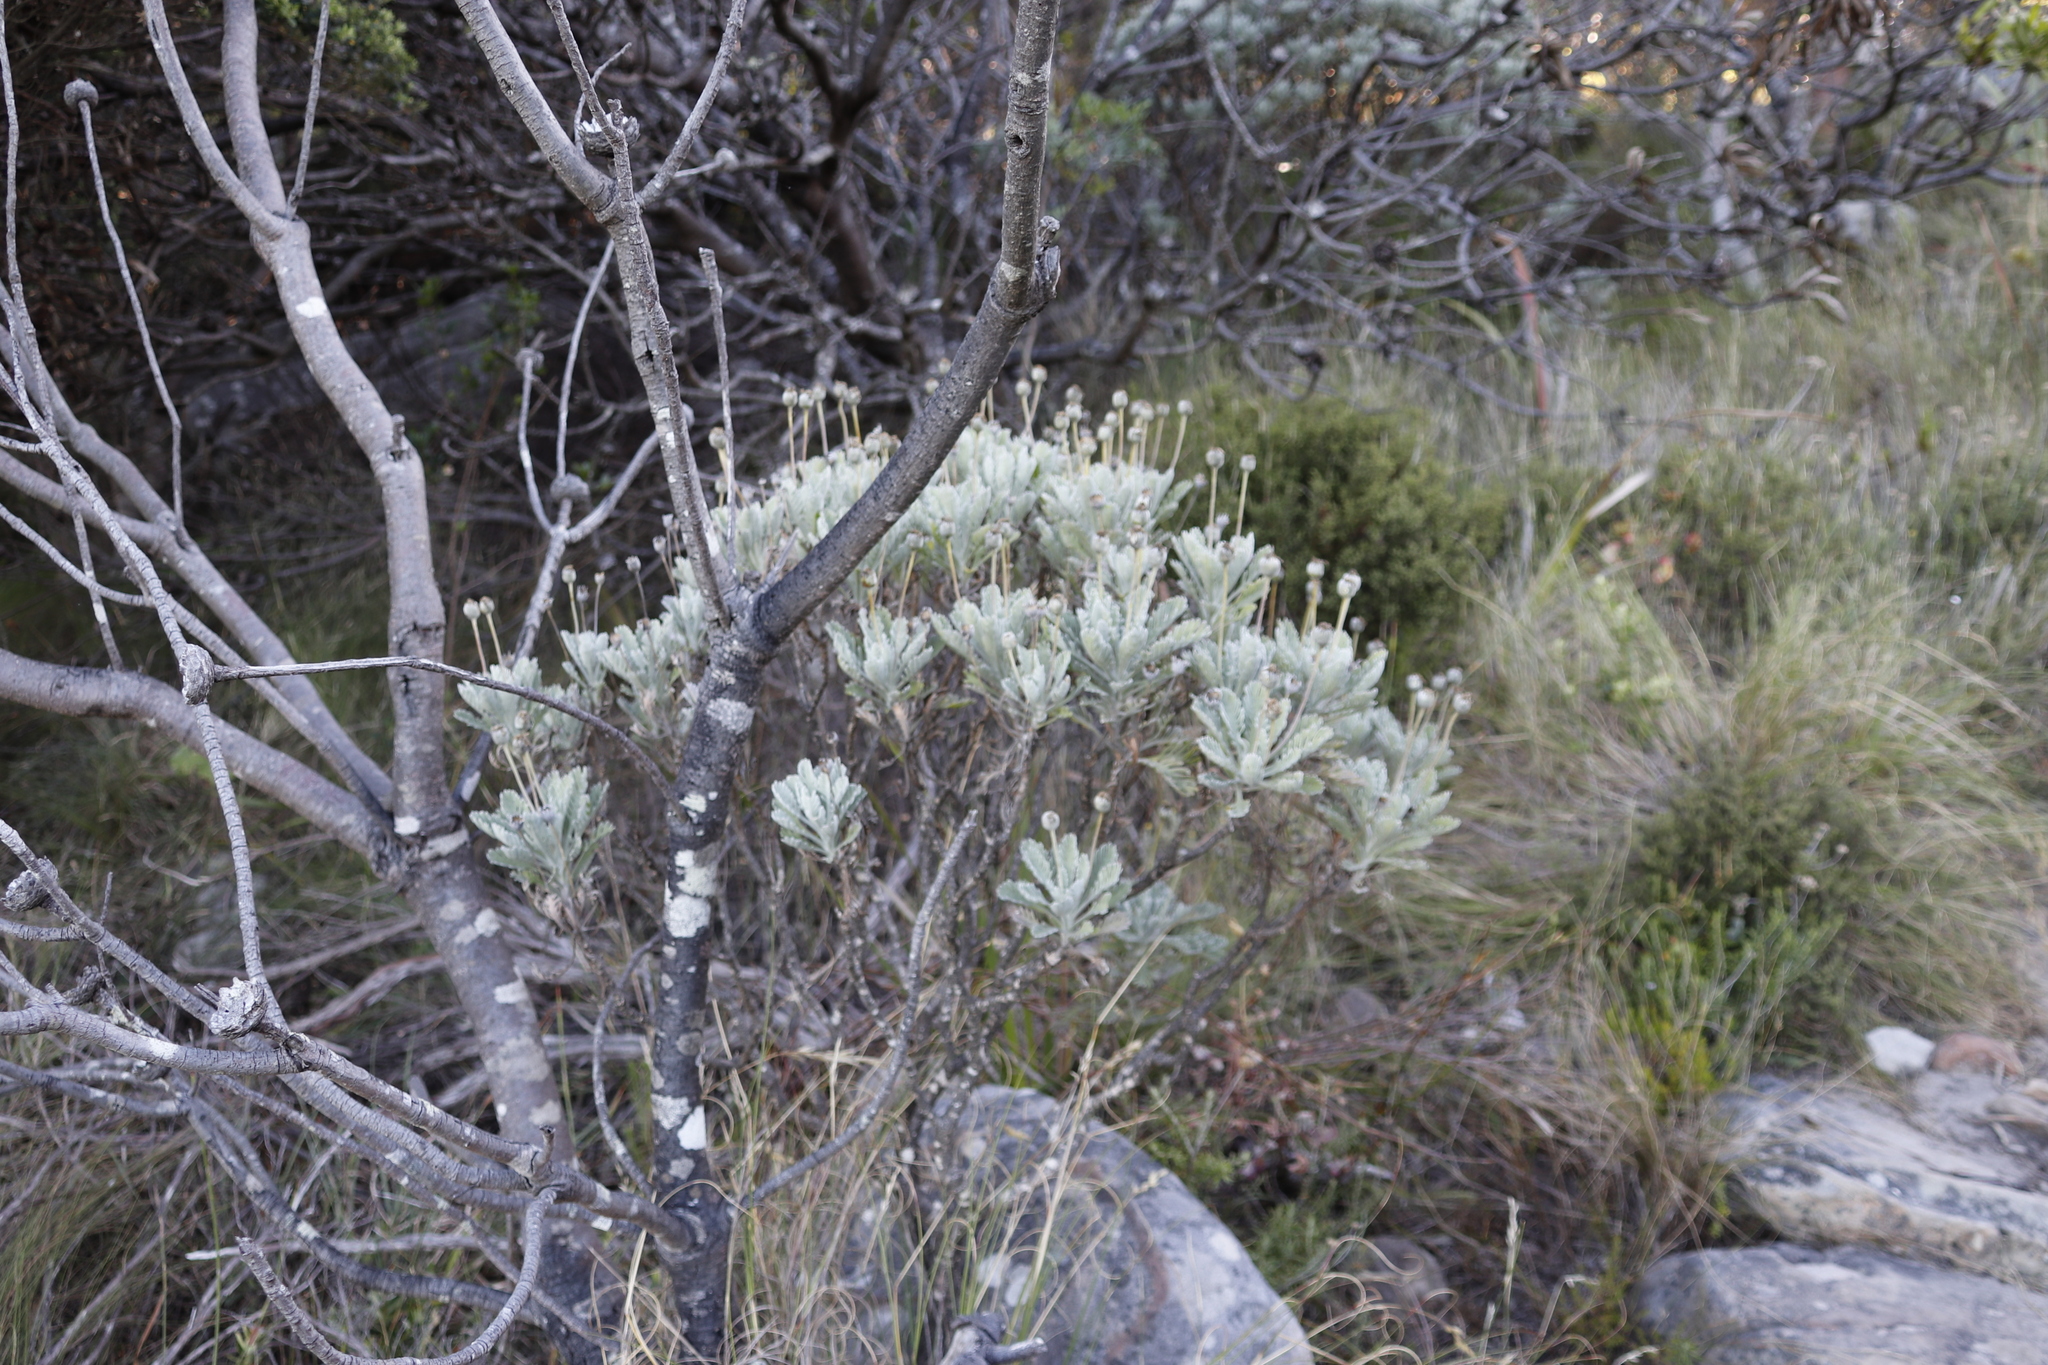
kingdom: Plantae
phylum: Tracheophyta
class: Magnoliopsida
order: Asterales
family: Asteraceae
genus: Euryops
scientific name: Euryops pectinatus
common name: Gray-leaf euryops
